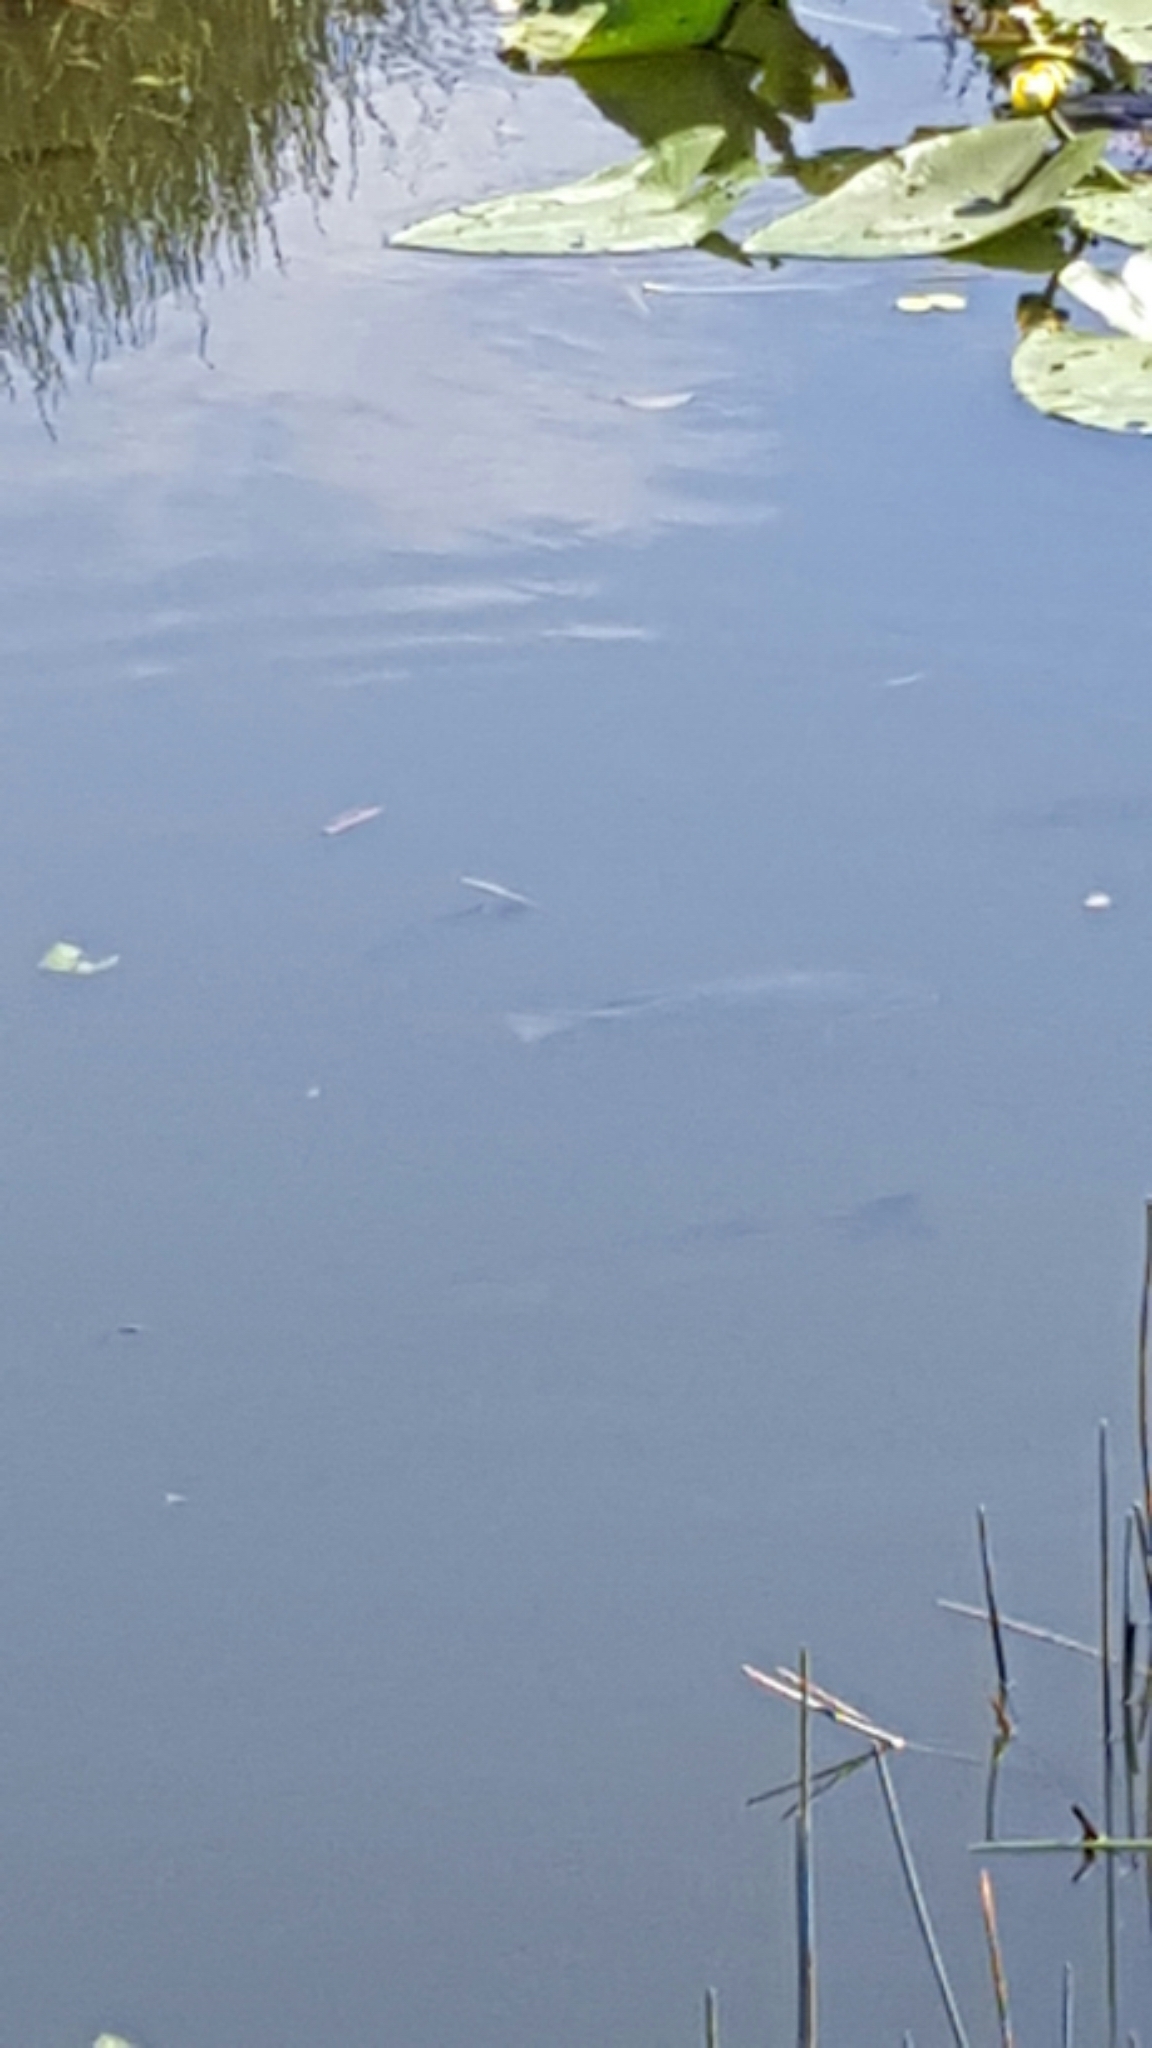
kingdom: Animalia
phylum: Chordata
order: Perciformes
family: Centrarchidae
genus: Micropterus
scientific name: Micropterus salmoides
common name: Largemouth bass
